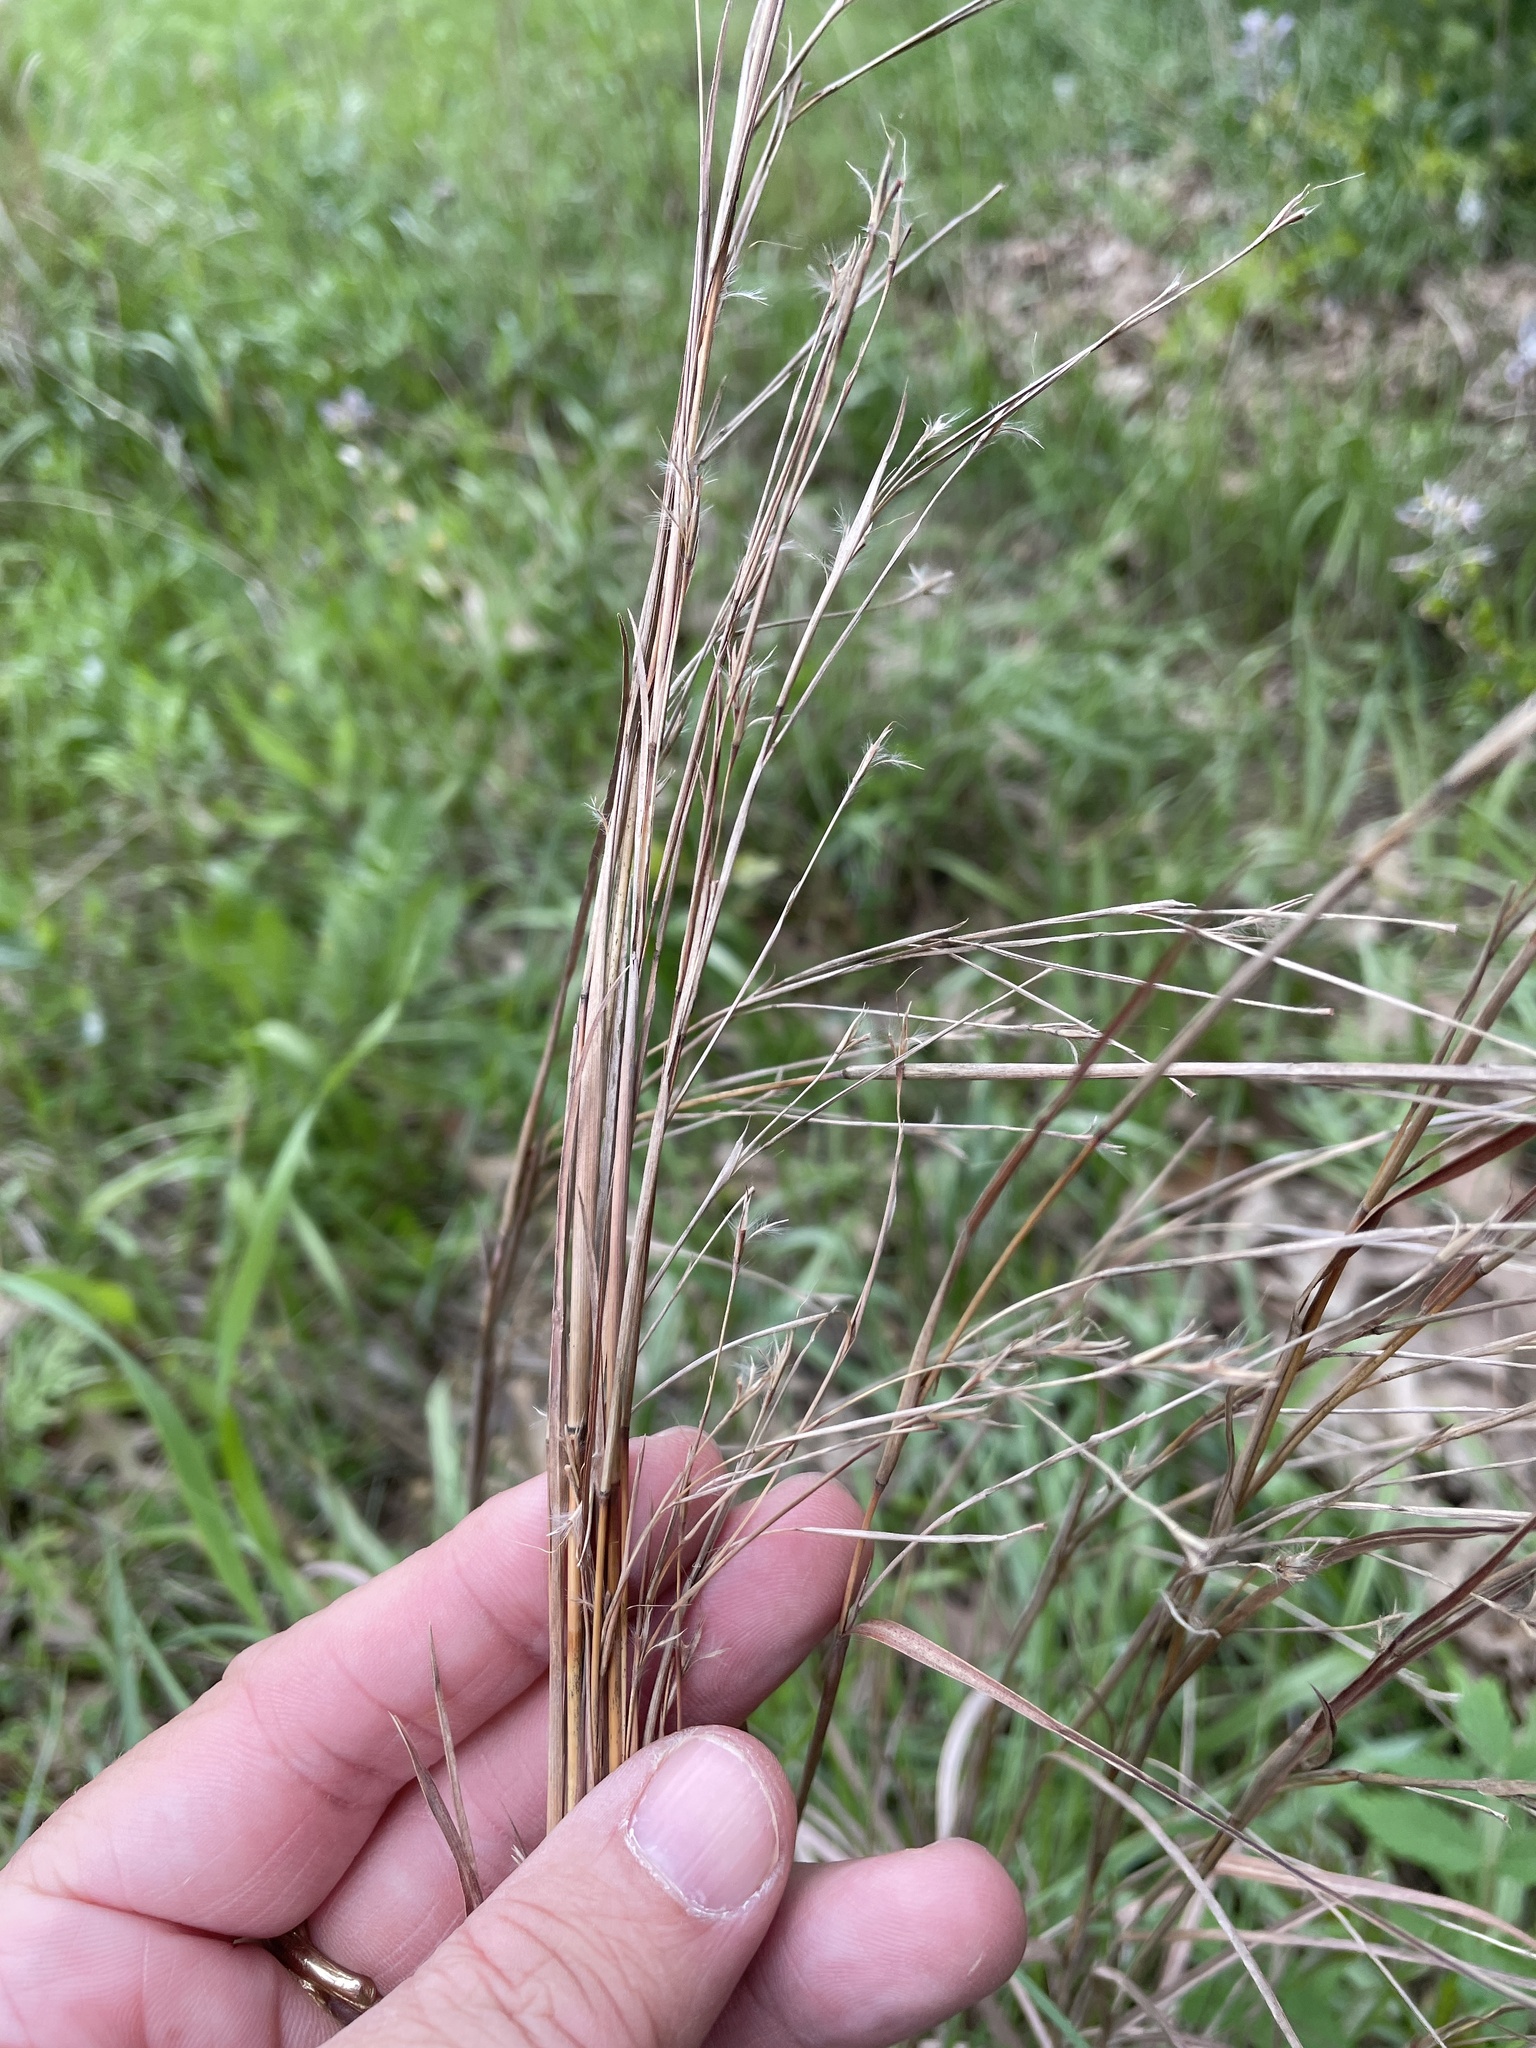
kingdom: Plantae
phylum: Tracheophyta
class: Liliopsida
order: Poales
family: Poaceae
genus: Schizachyrium
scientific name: Schizachyrium scoparium
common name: Little bluestem
